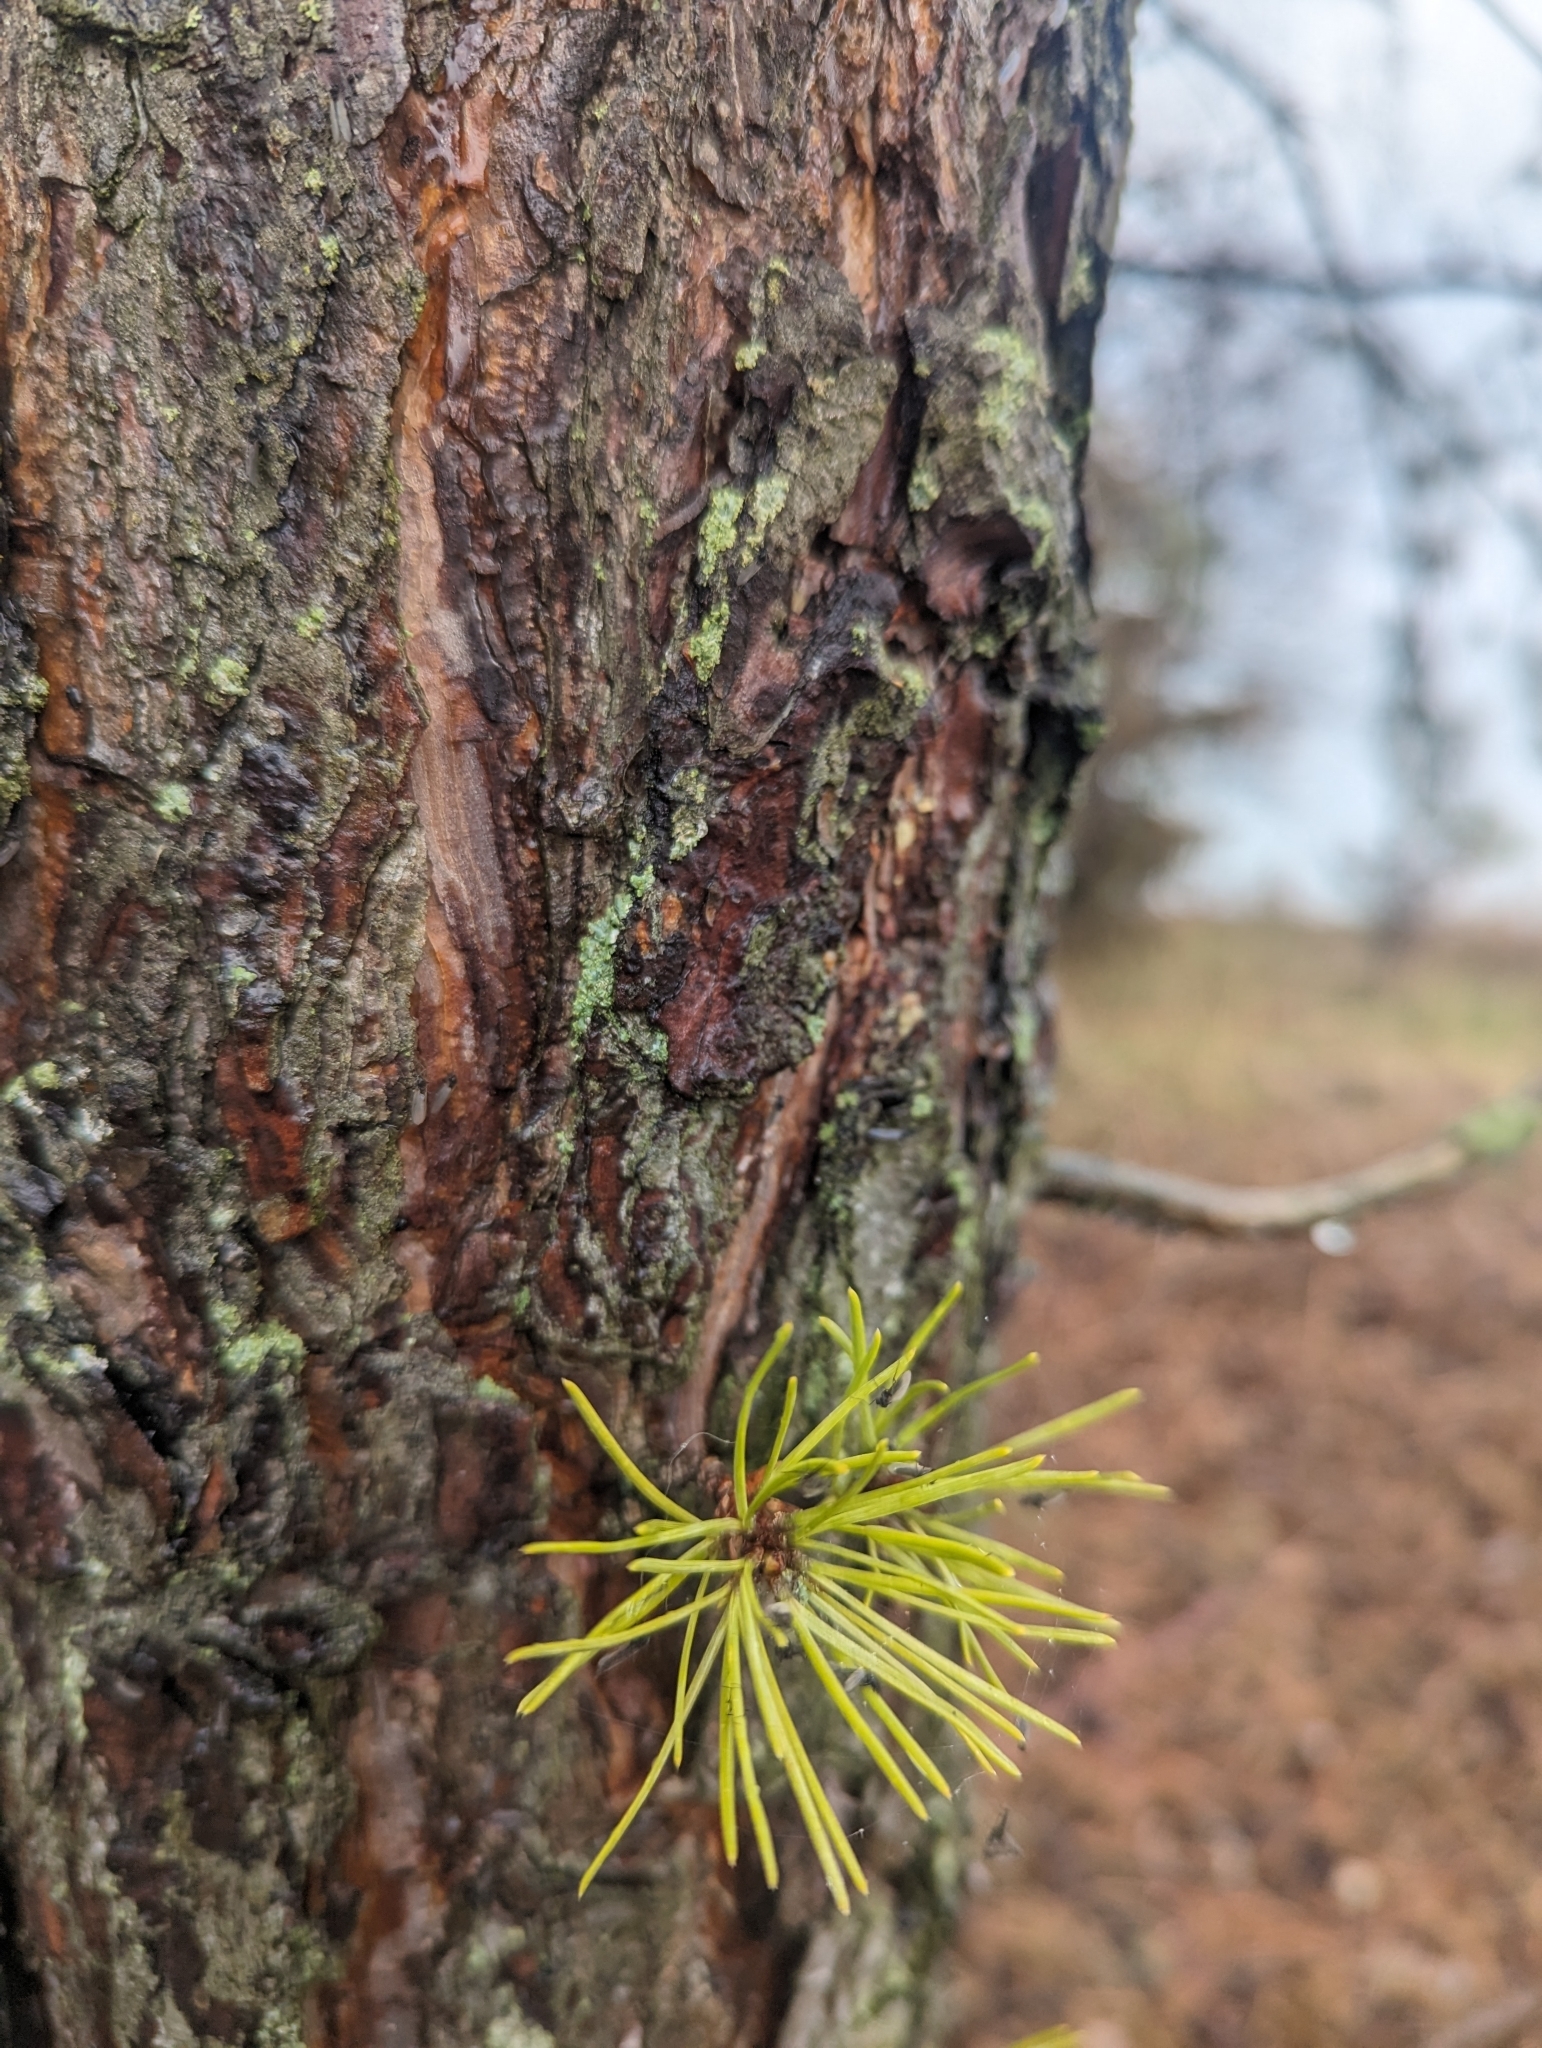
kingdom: Plantae
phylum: Tracheophyta
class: Pinopsida
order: Pinales
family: Pinaceae
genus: Pinus
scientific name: Pinus rigida
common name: Pitch pine
